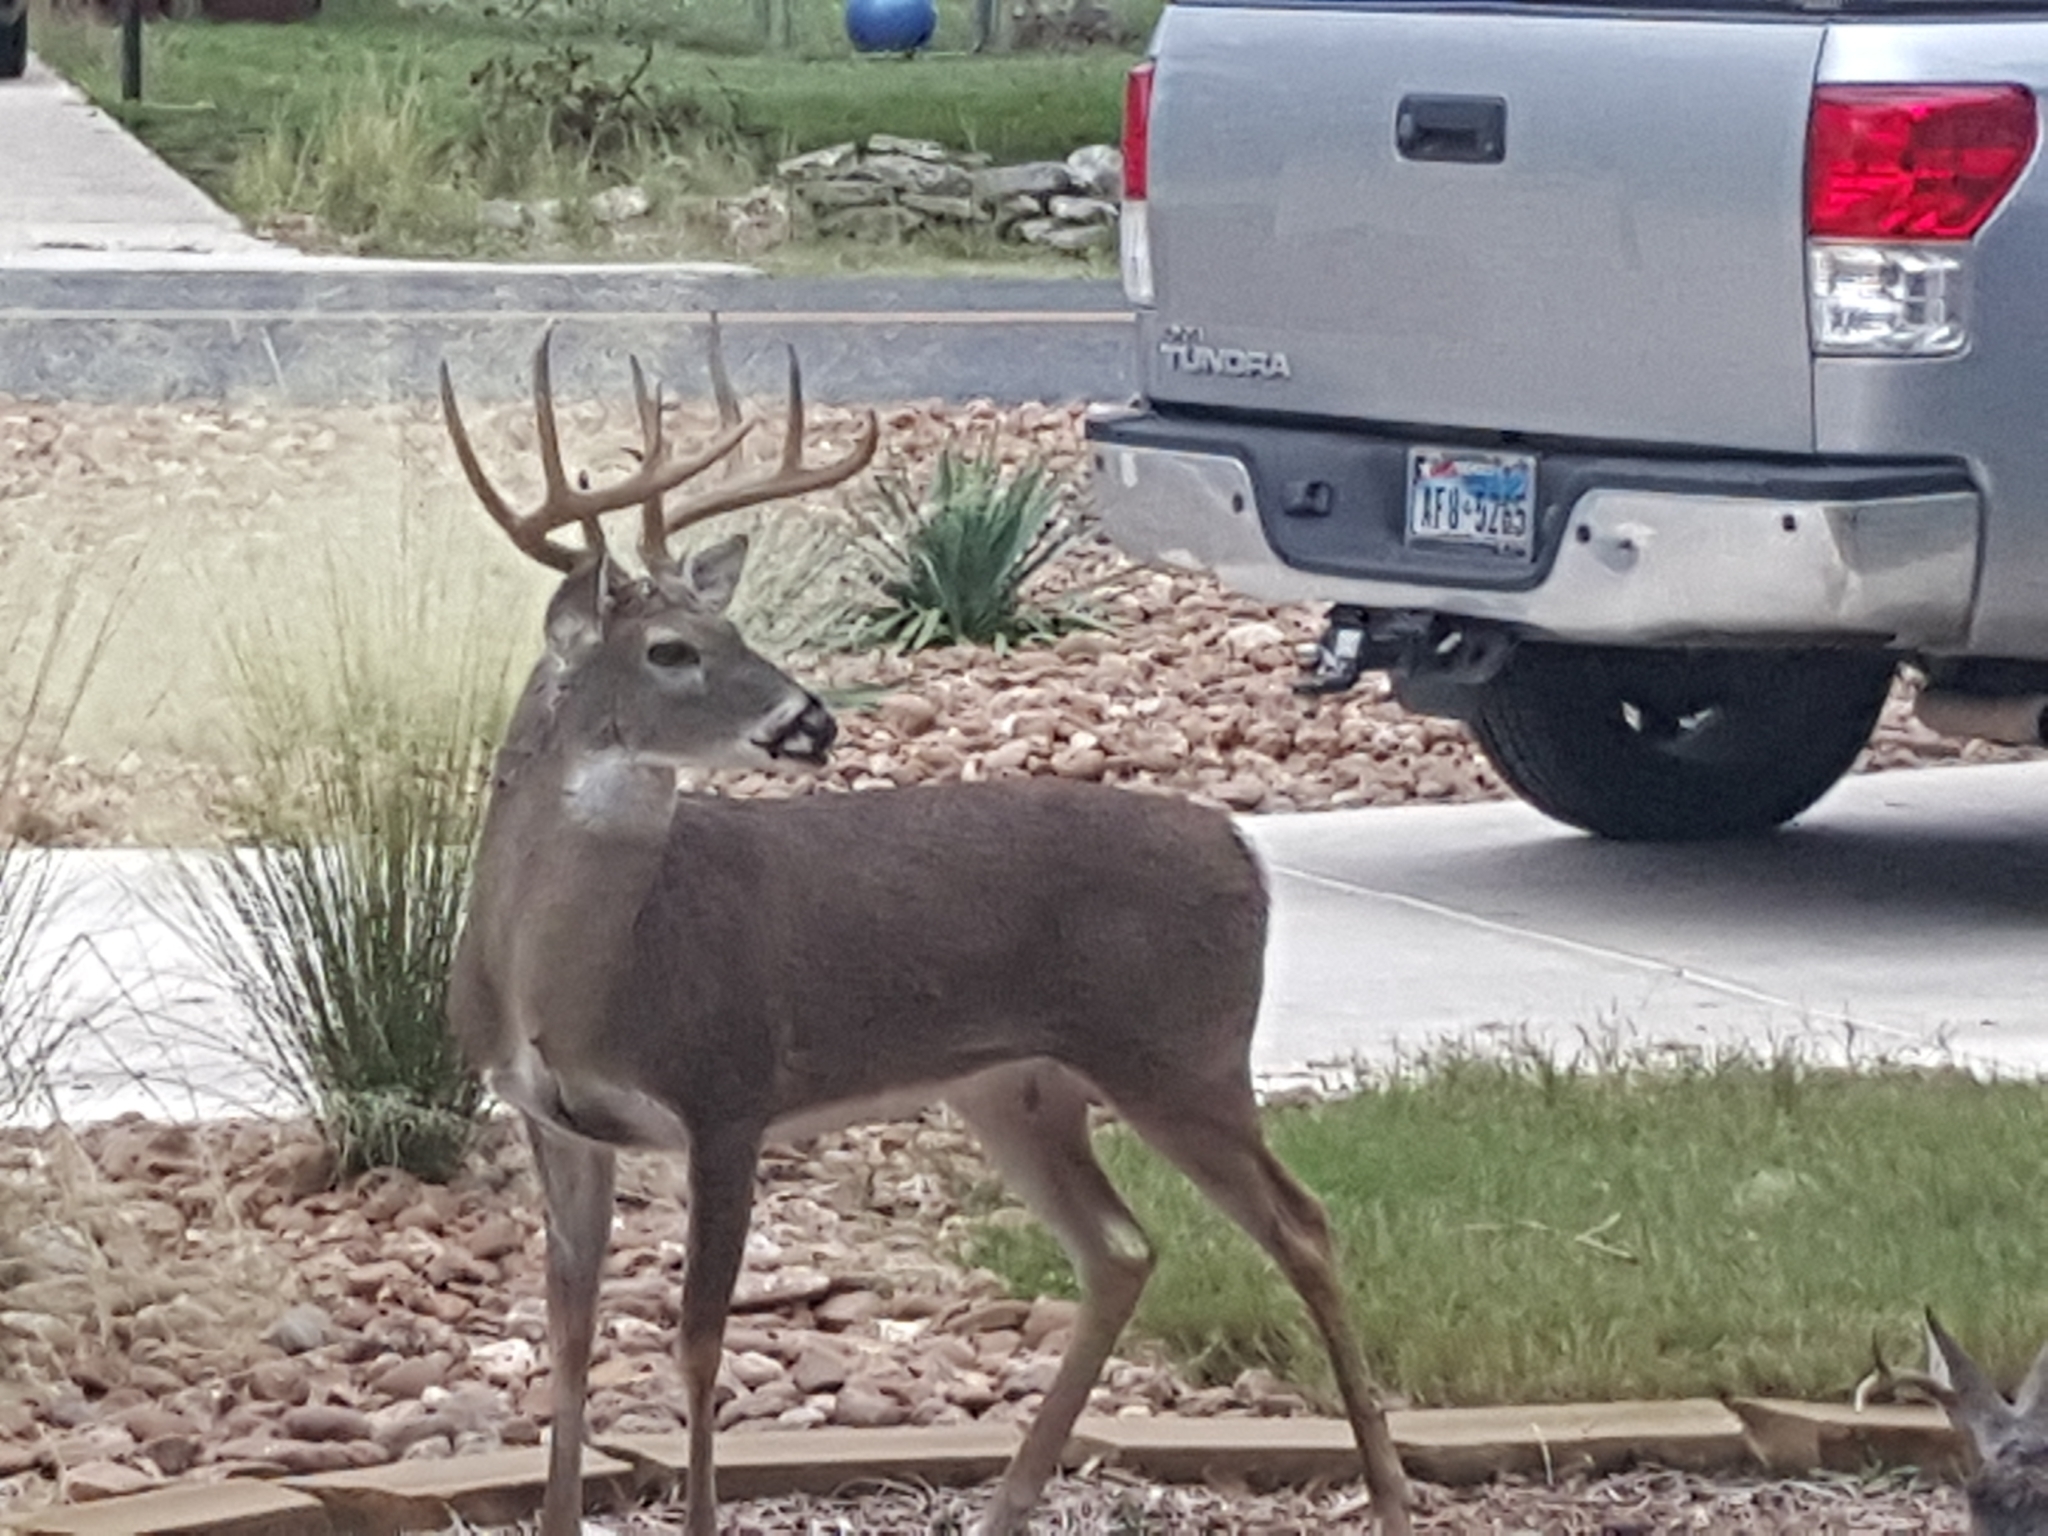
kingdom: Animalia
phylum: Chordata
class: Mammalia
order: Artiodactyla
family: Cervidae
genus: Odocoileus
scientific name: Odocoileus virginianus
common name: White-tailed deer
